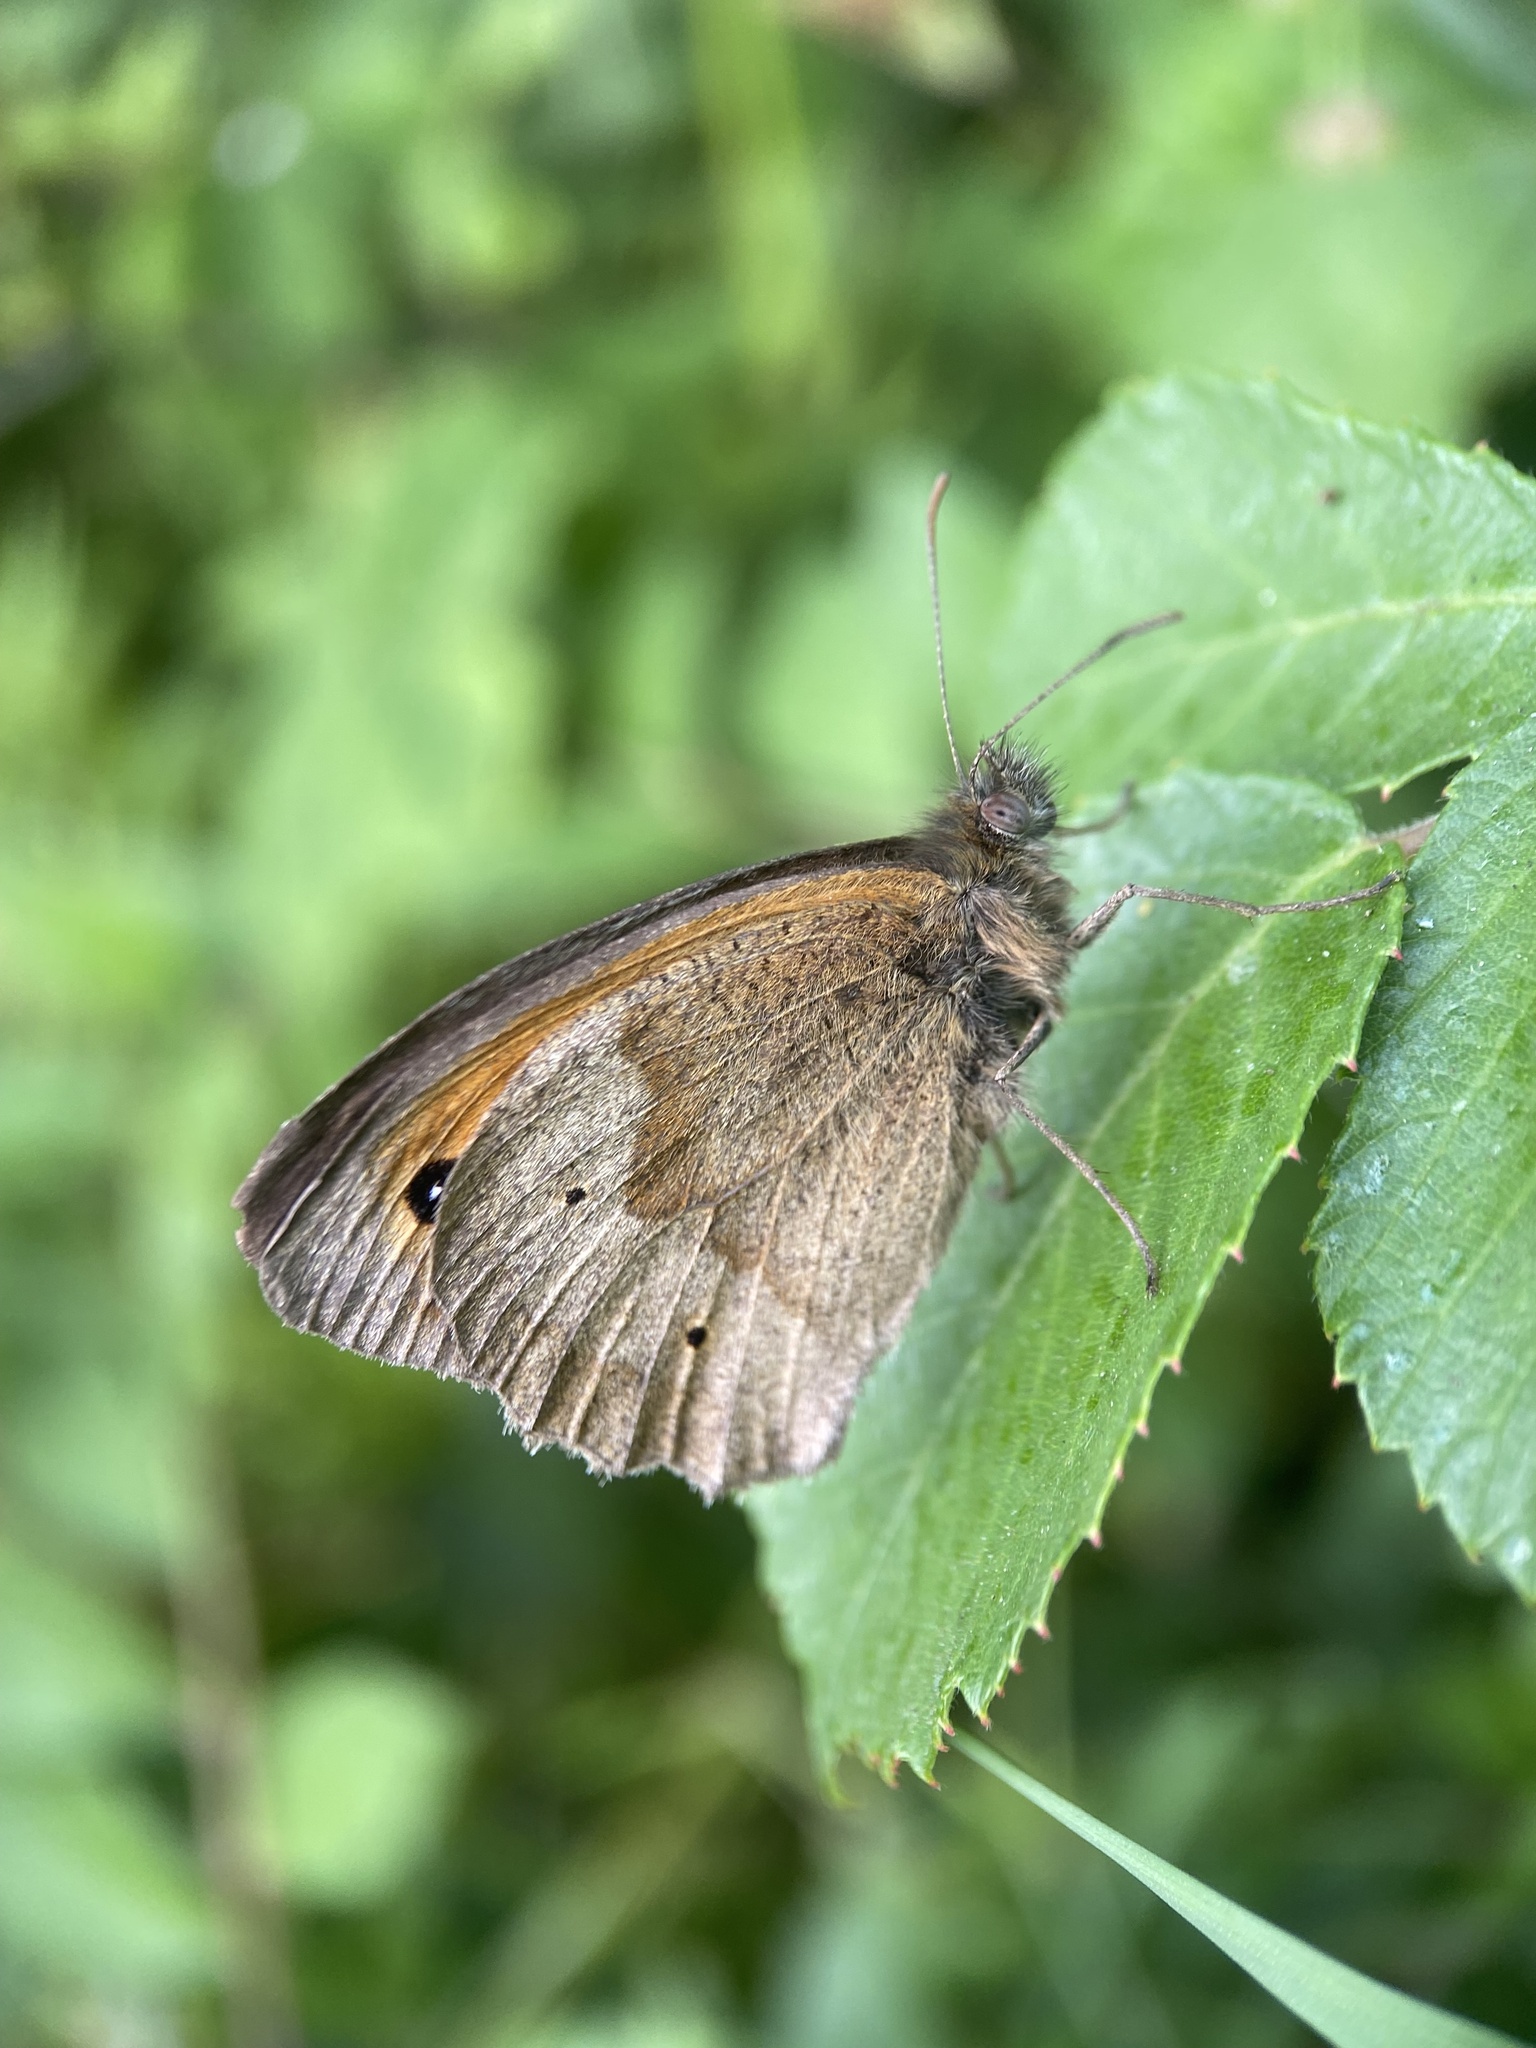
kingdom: Animalia
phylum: Arthropoda
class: Insecta
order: Lepidoptera
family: Nymphalidae
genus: Maniola
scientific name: Maniola jurtina
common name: Meadow brown
